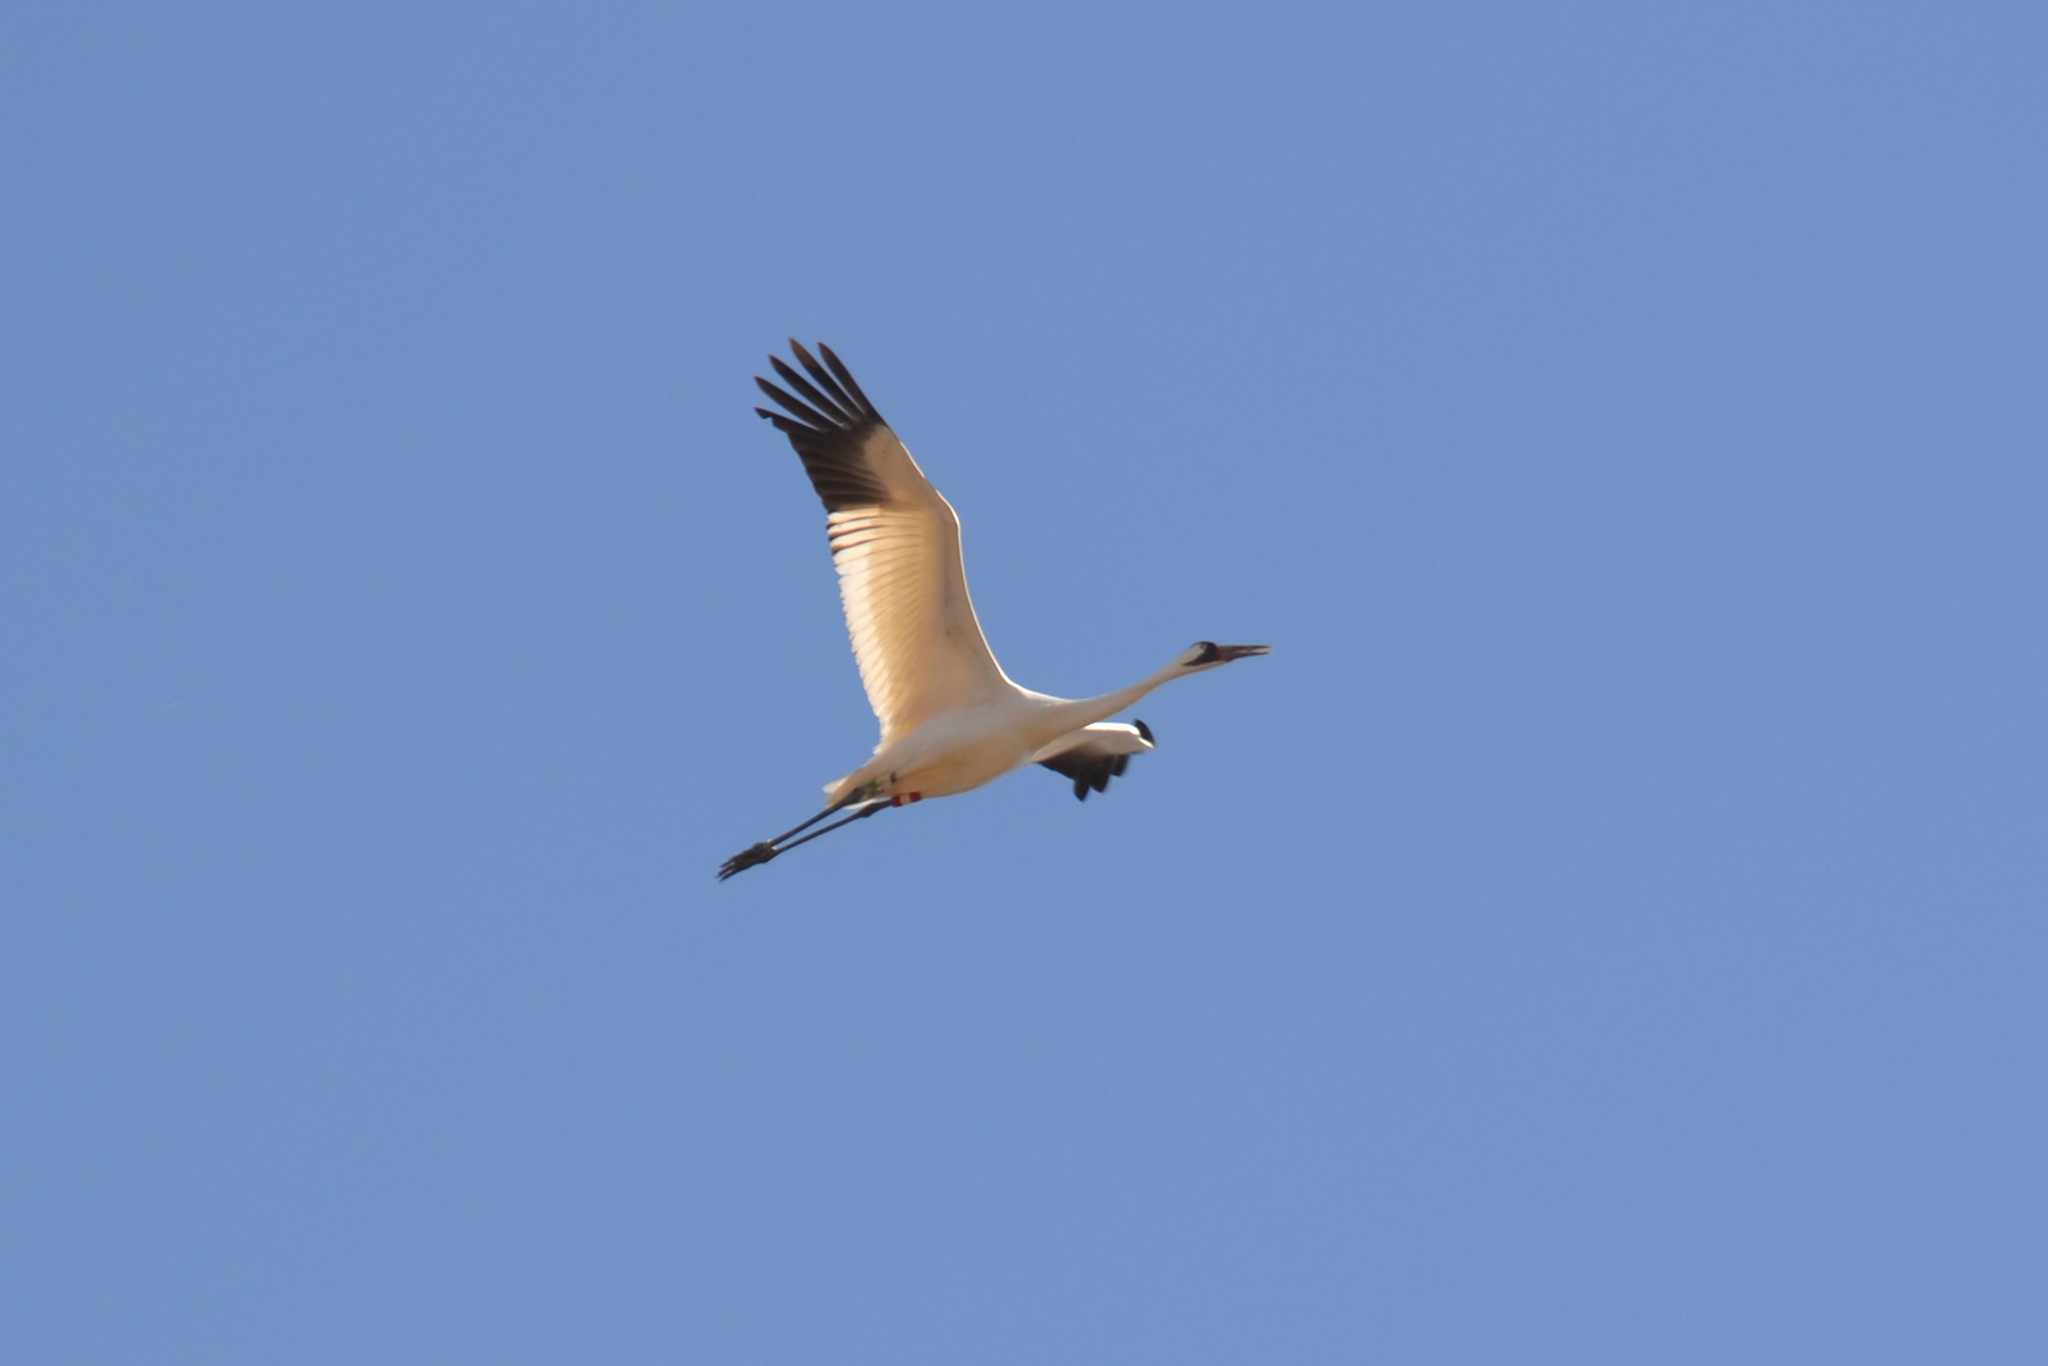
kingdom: Animalia
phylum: Chordata
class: Aves
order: Gruiformes
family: Gruidae
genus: Grus
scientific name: Grus americana
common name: Whooping crane
